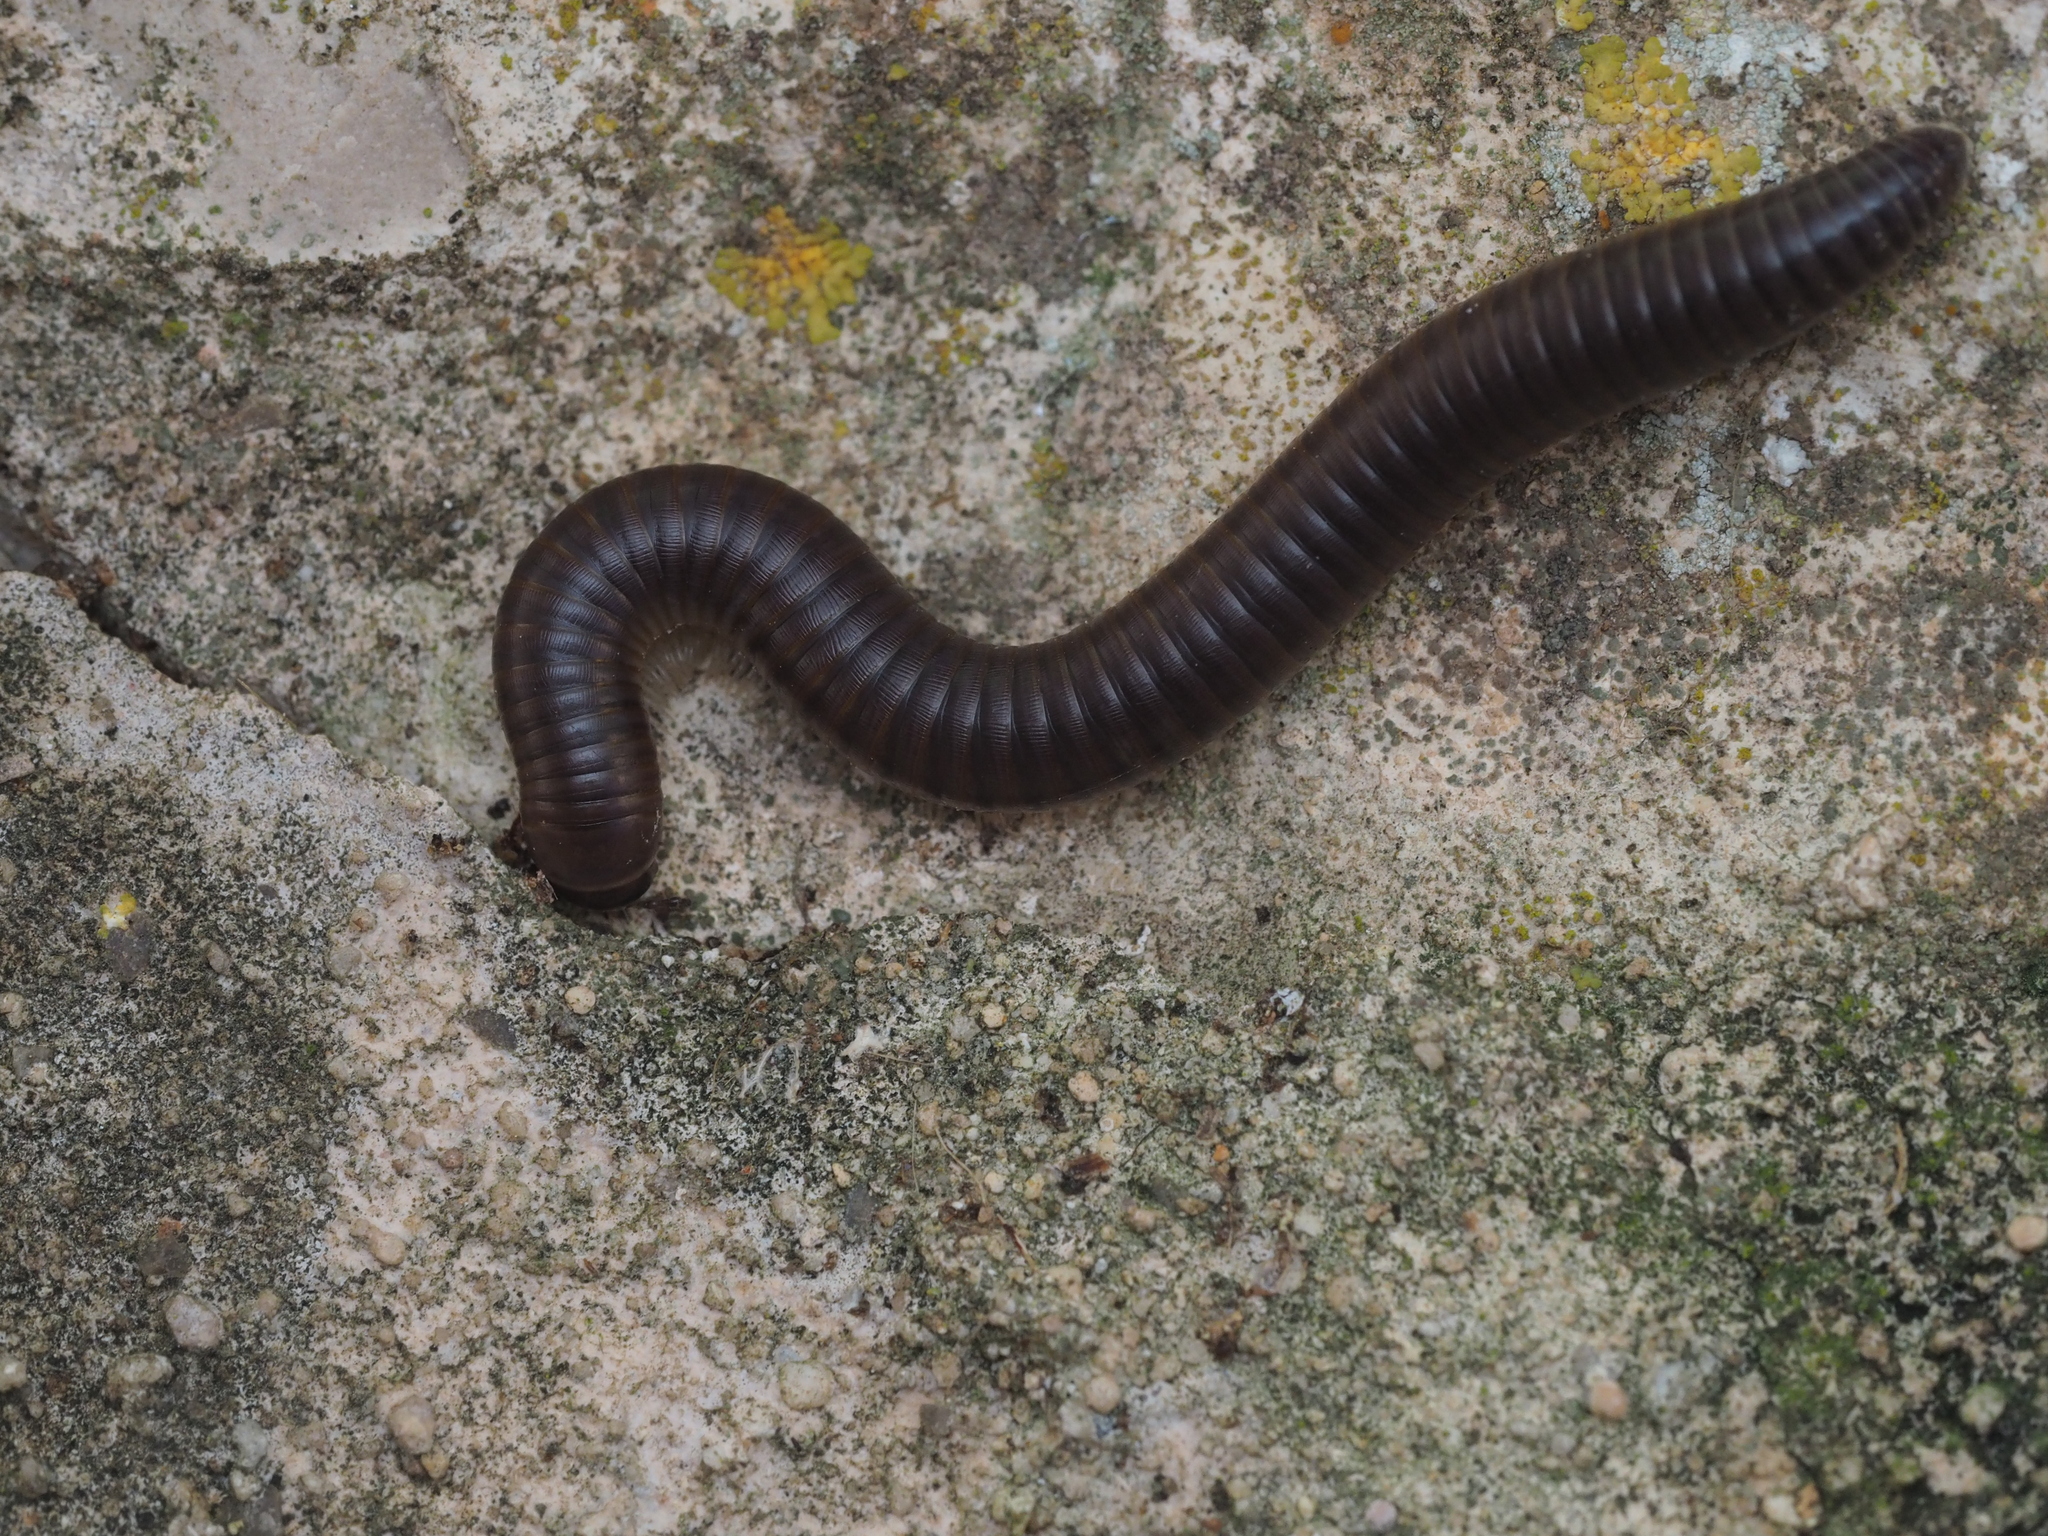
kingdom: Animalia
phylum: Arthropoda
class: Diplopoda
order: Julida
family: Julidae
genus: Pachyiulus
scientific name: Pachyiulus flavipes
